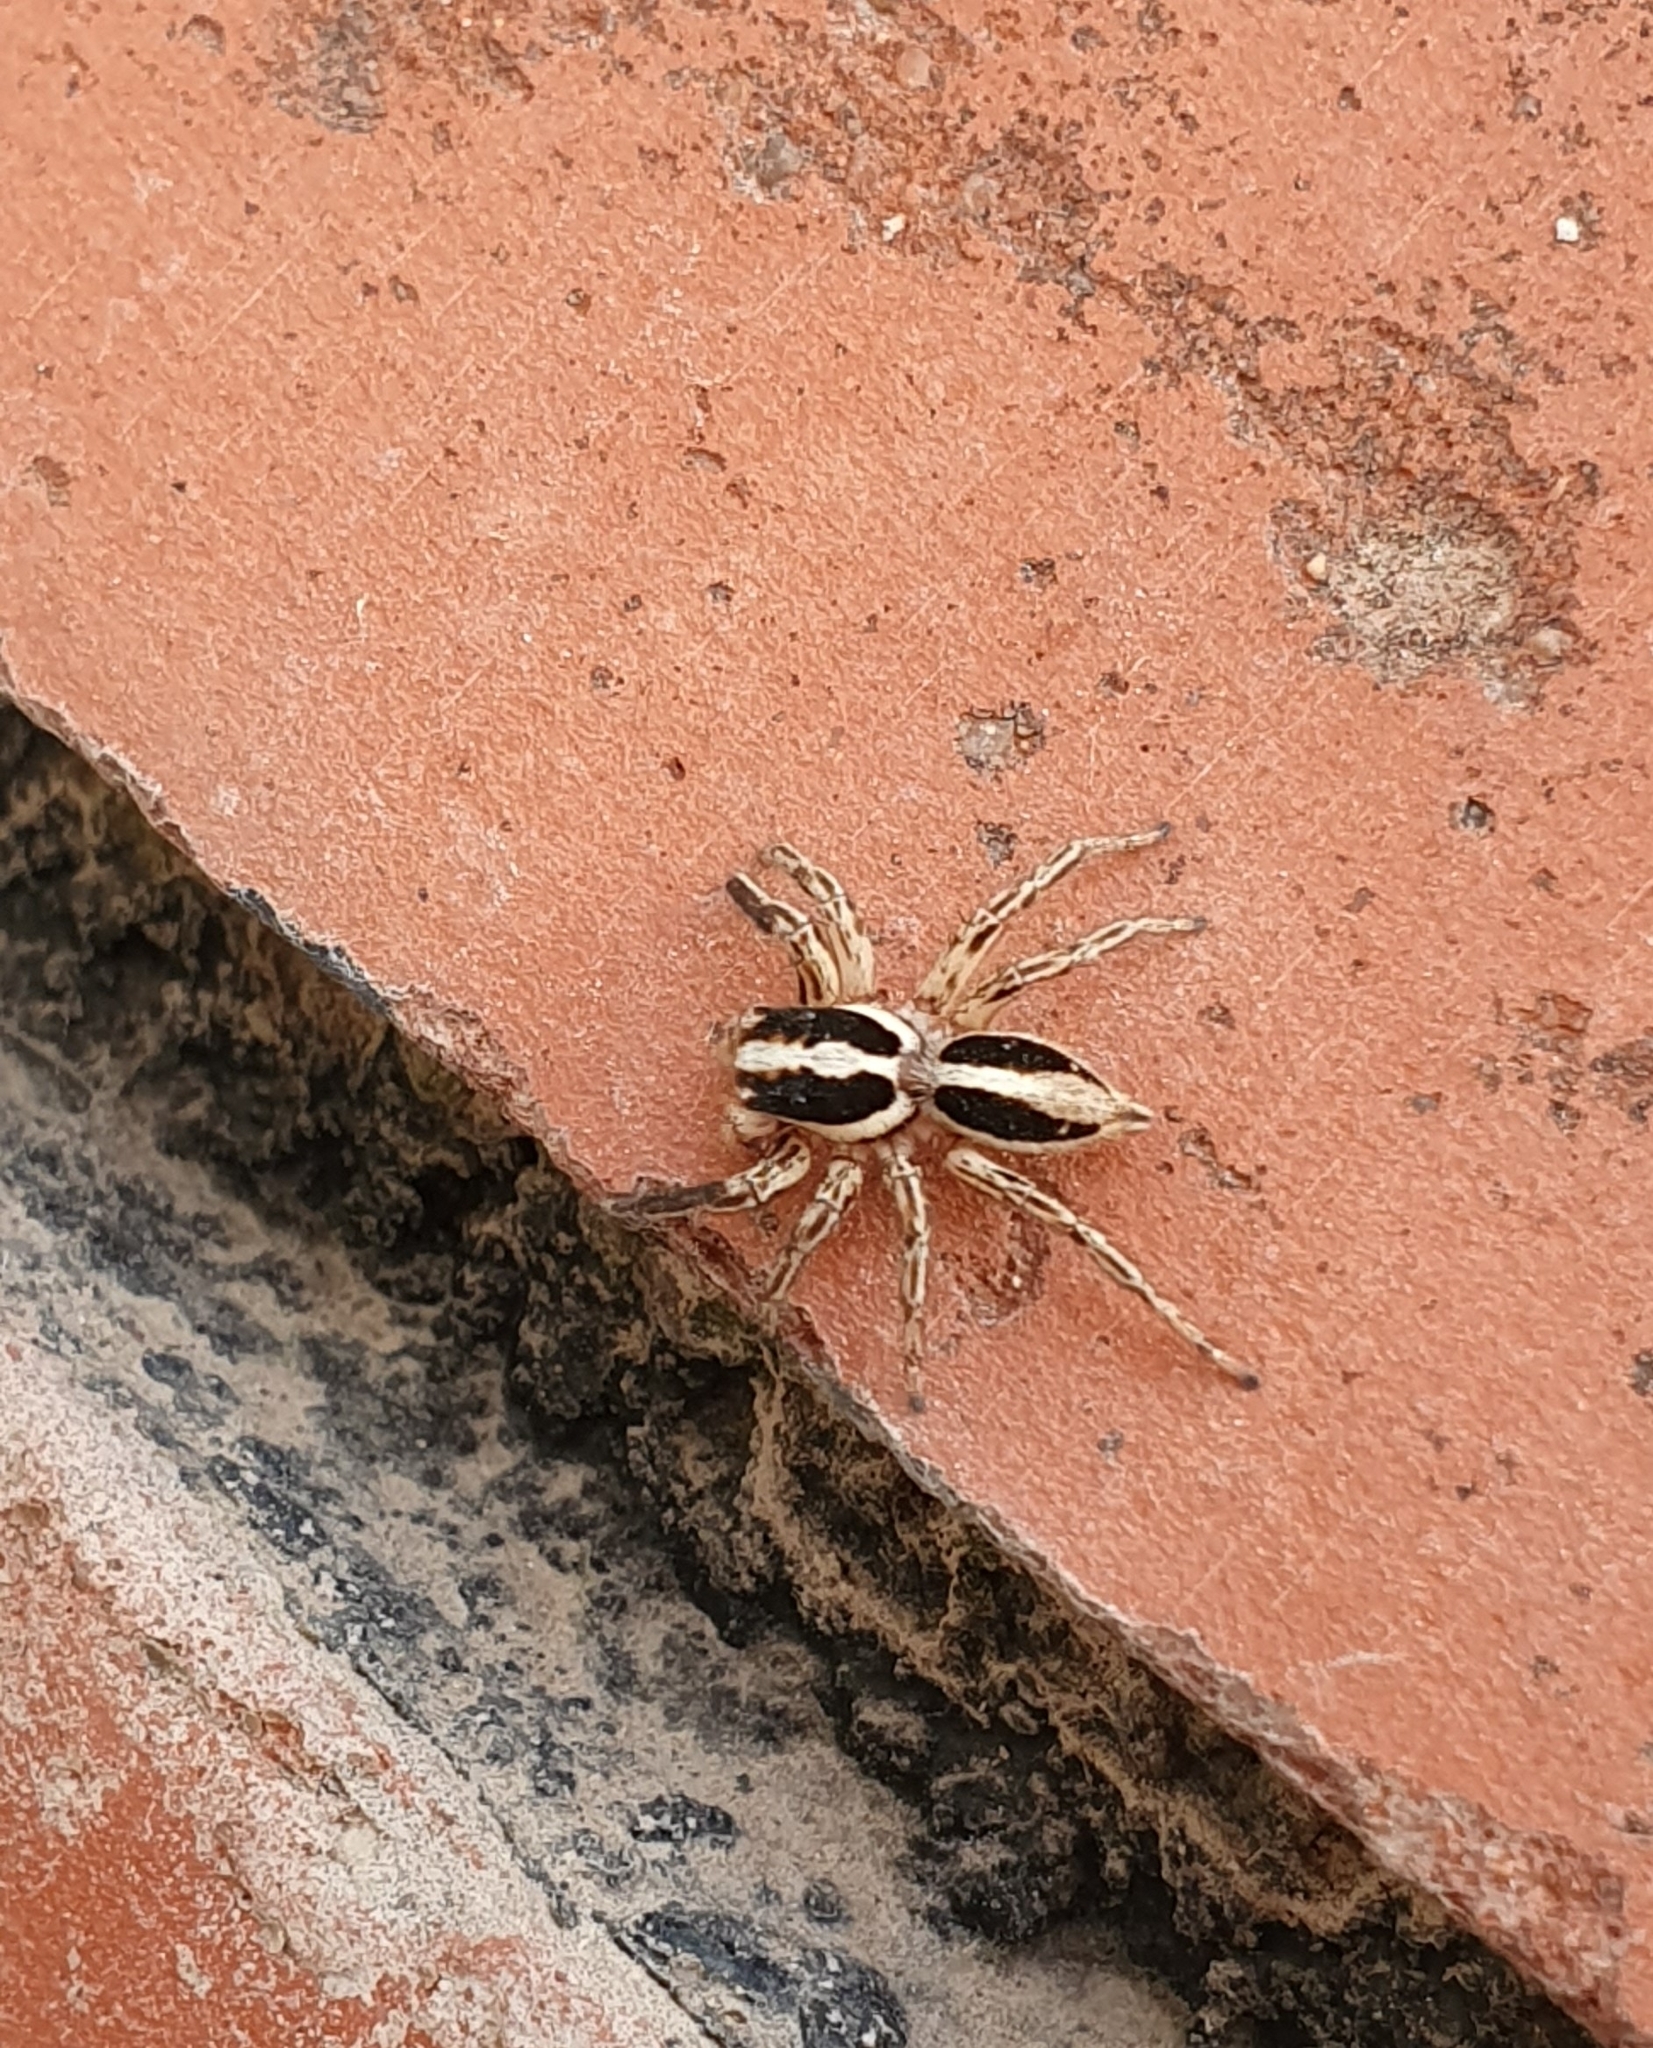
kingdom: Animalia
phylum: Arthropoda
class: Arachnida
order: Araneae
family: Salticidae
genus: Plexippus
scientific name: Plexippus paykulli
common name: Pantropical jumper
